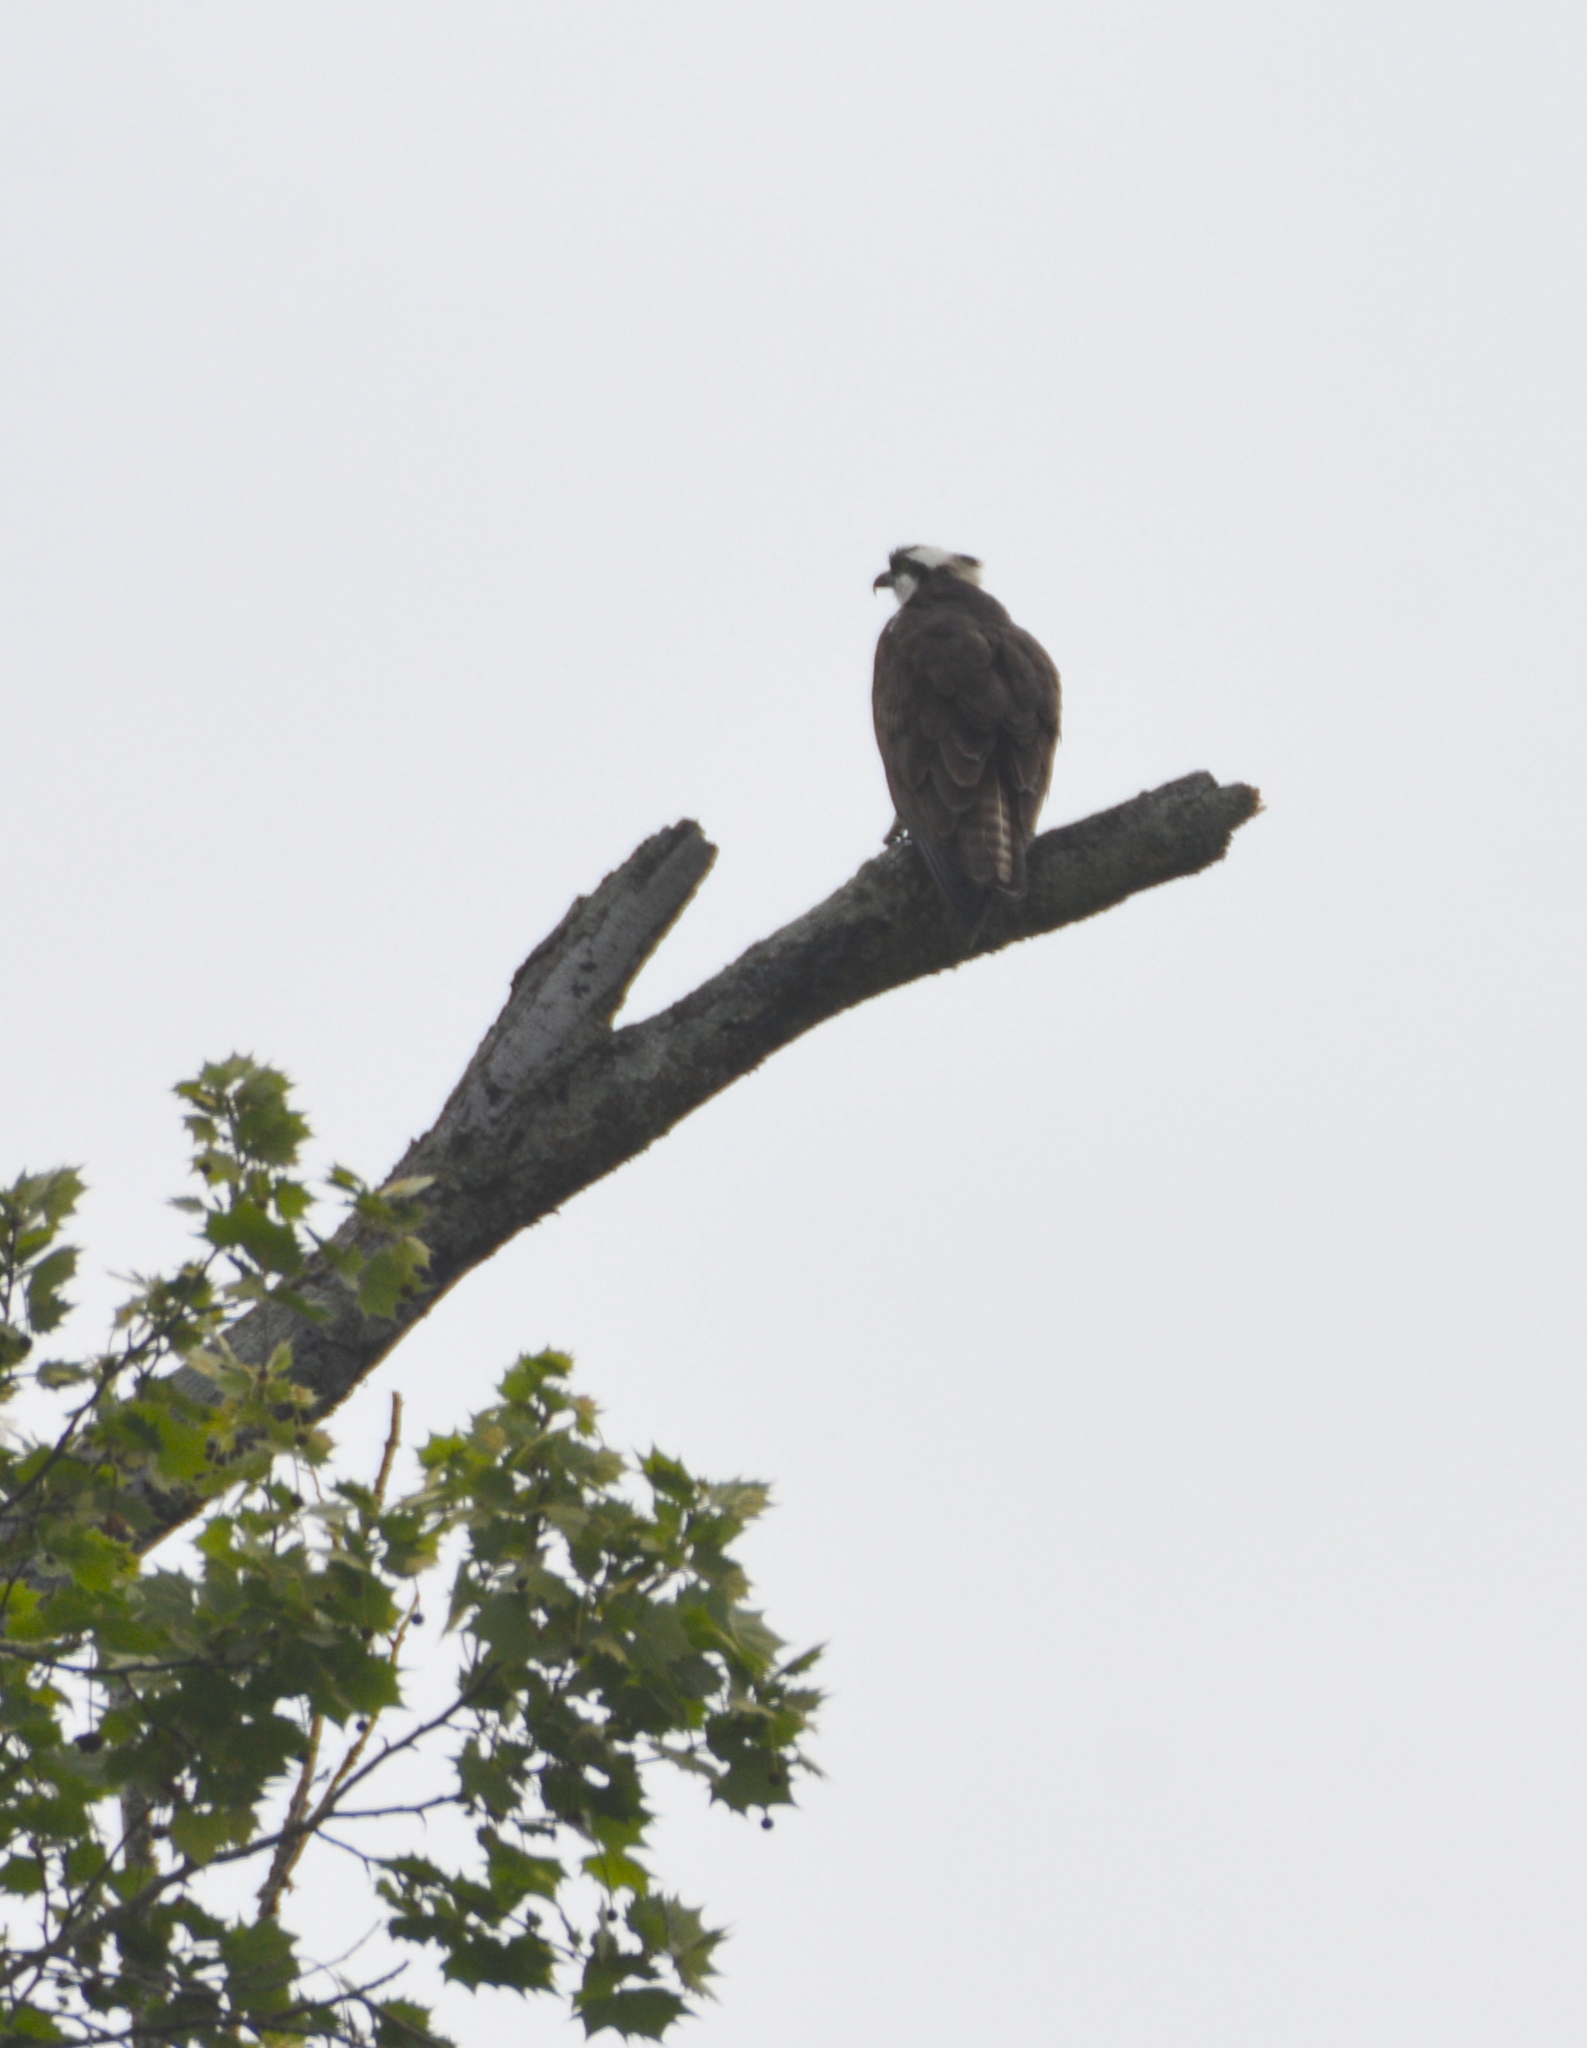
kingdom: Animalia
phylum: Chordata
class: Aves
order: Accipitriformes
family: Pandionidae
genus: Pandion
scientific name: Pandion haliaetus
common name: Osprey
